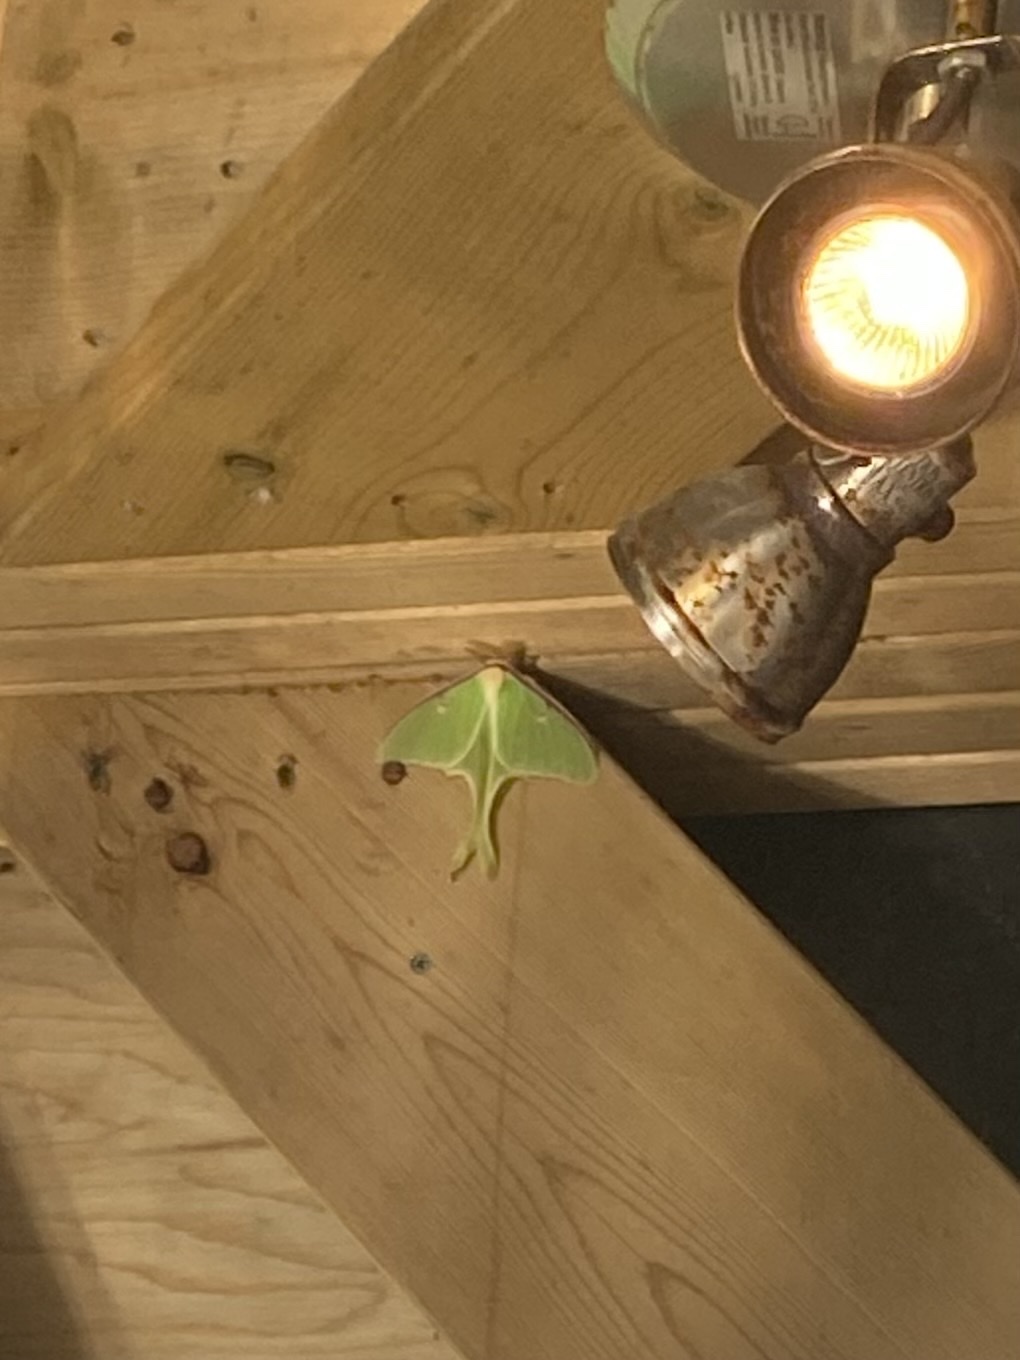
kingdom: Animalia
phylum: Arthropoda
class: Insecta
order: Lepidoptera
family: Saturniidae
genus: Actias
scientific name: Actias luna
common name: Luna moth
